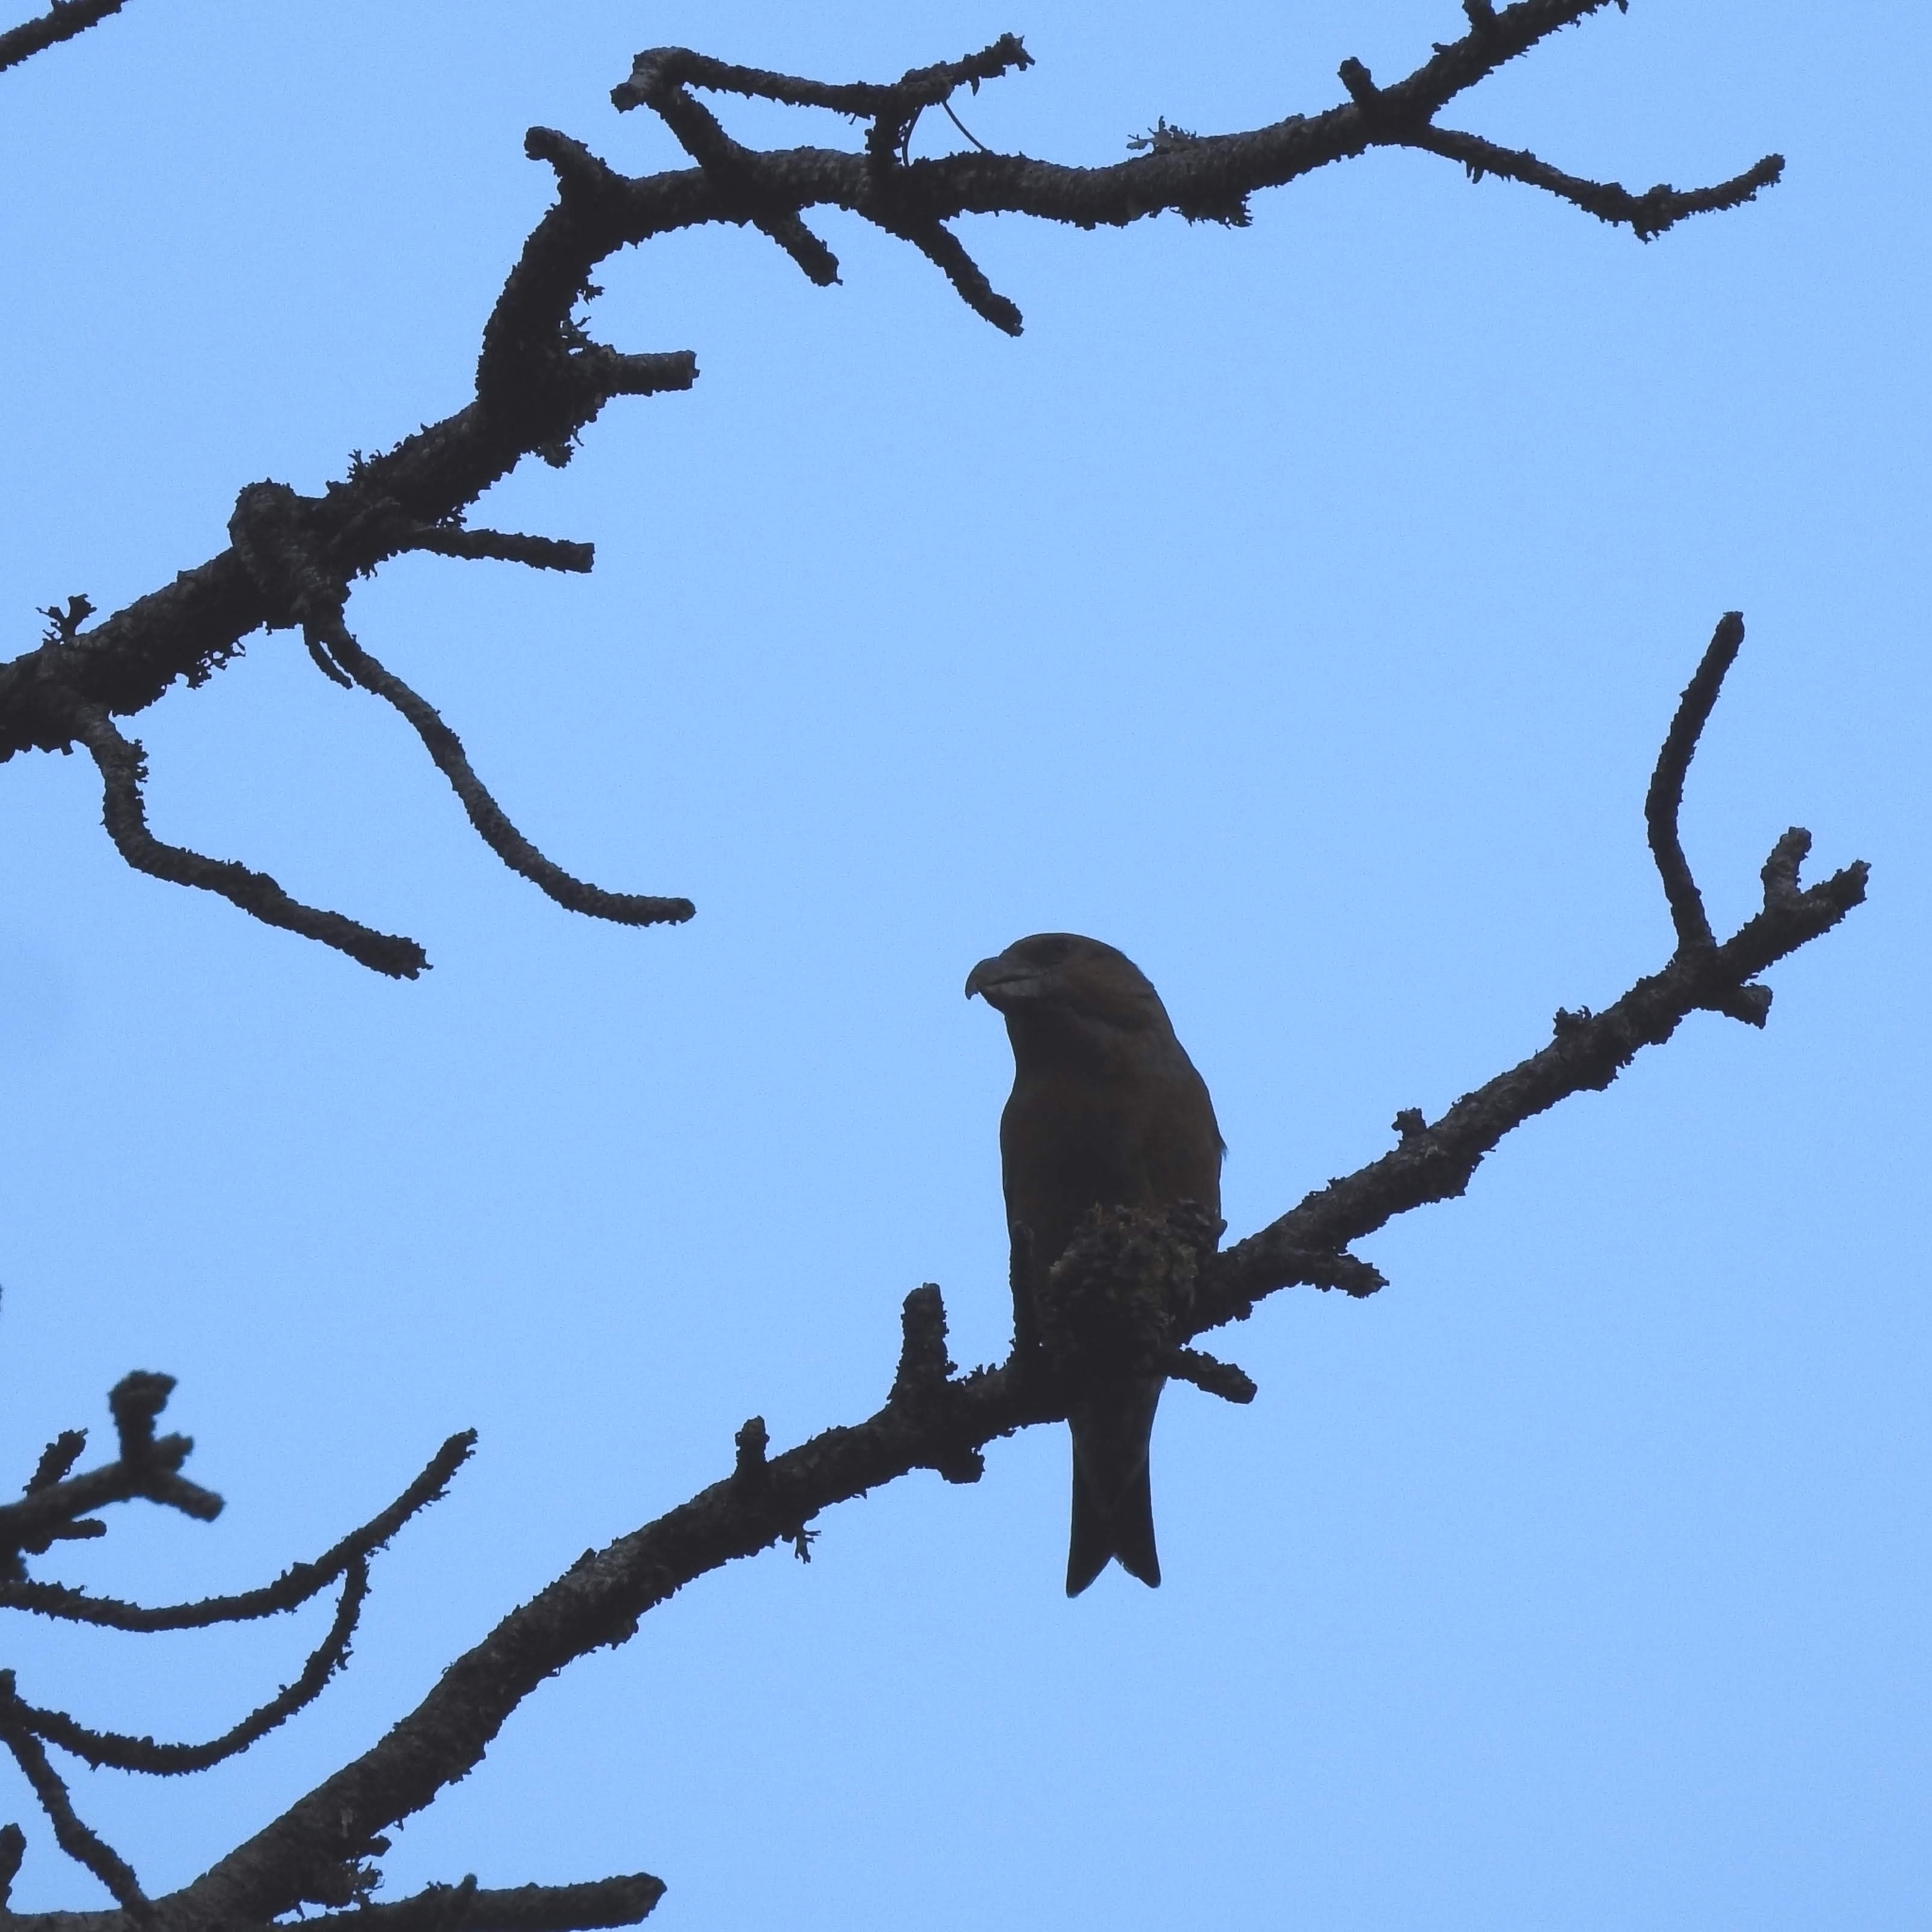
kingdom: Animalia
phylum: Chordata
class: Aves
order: Passeriformes
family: Fringillidae
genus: Loxia
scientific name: Loxia curvirostra
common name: Red crossbill
